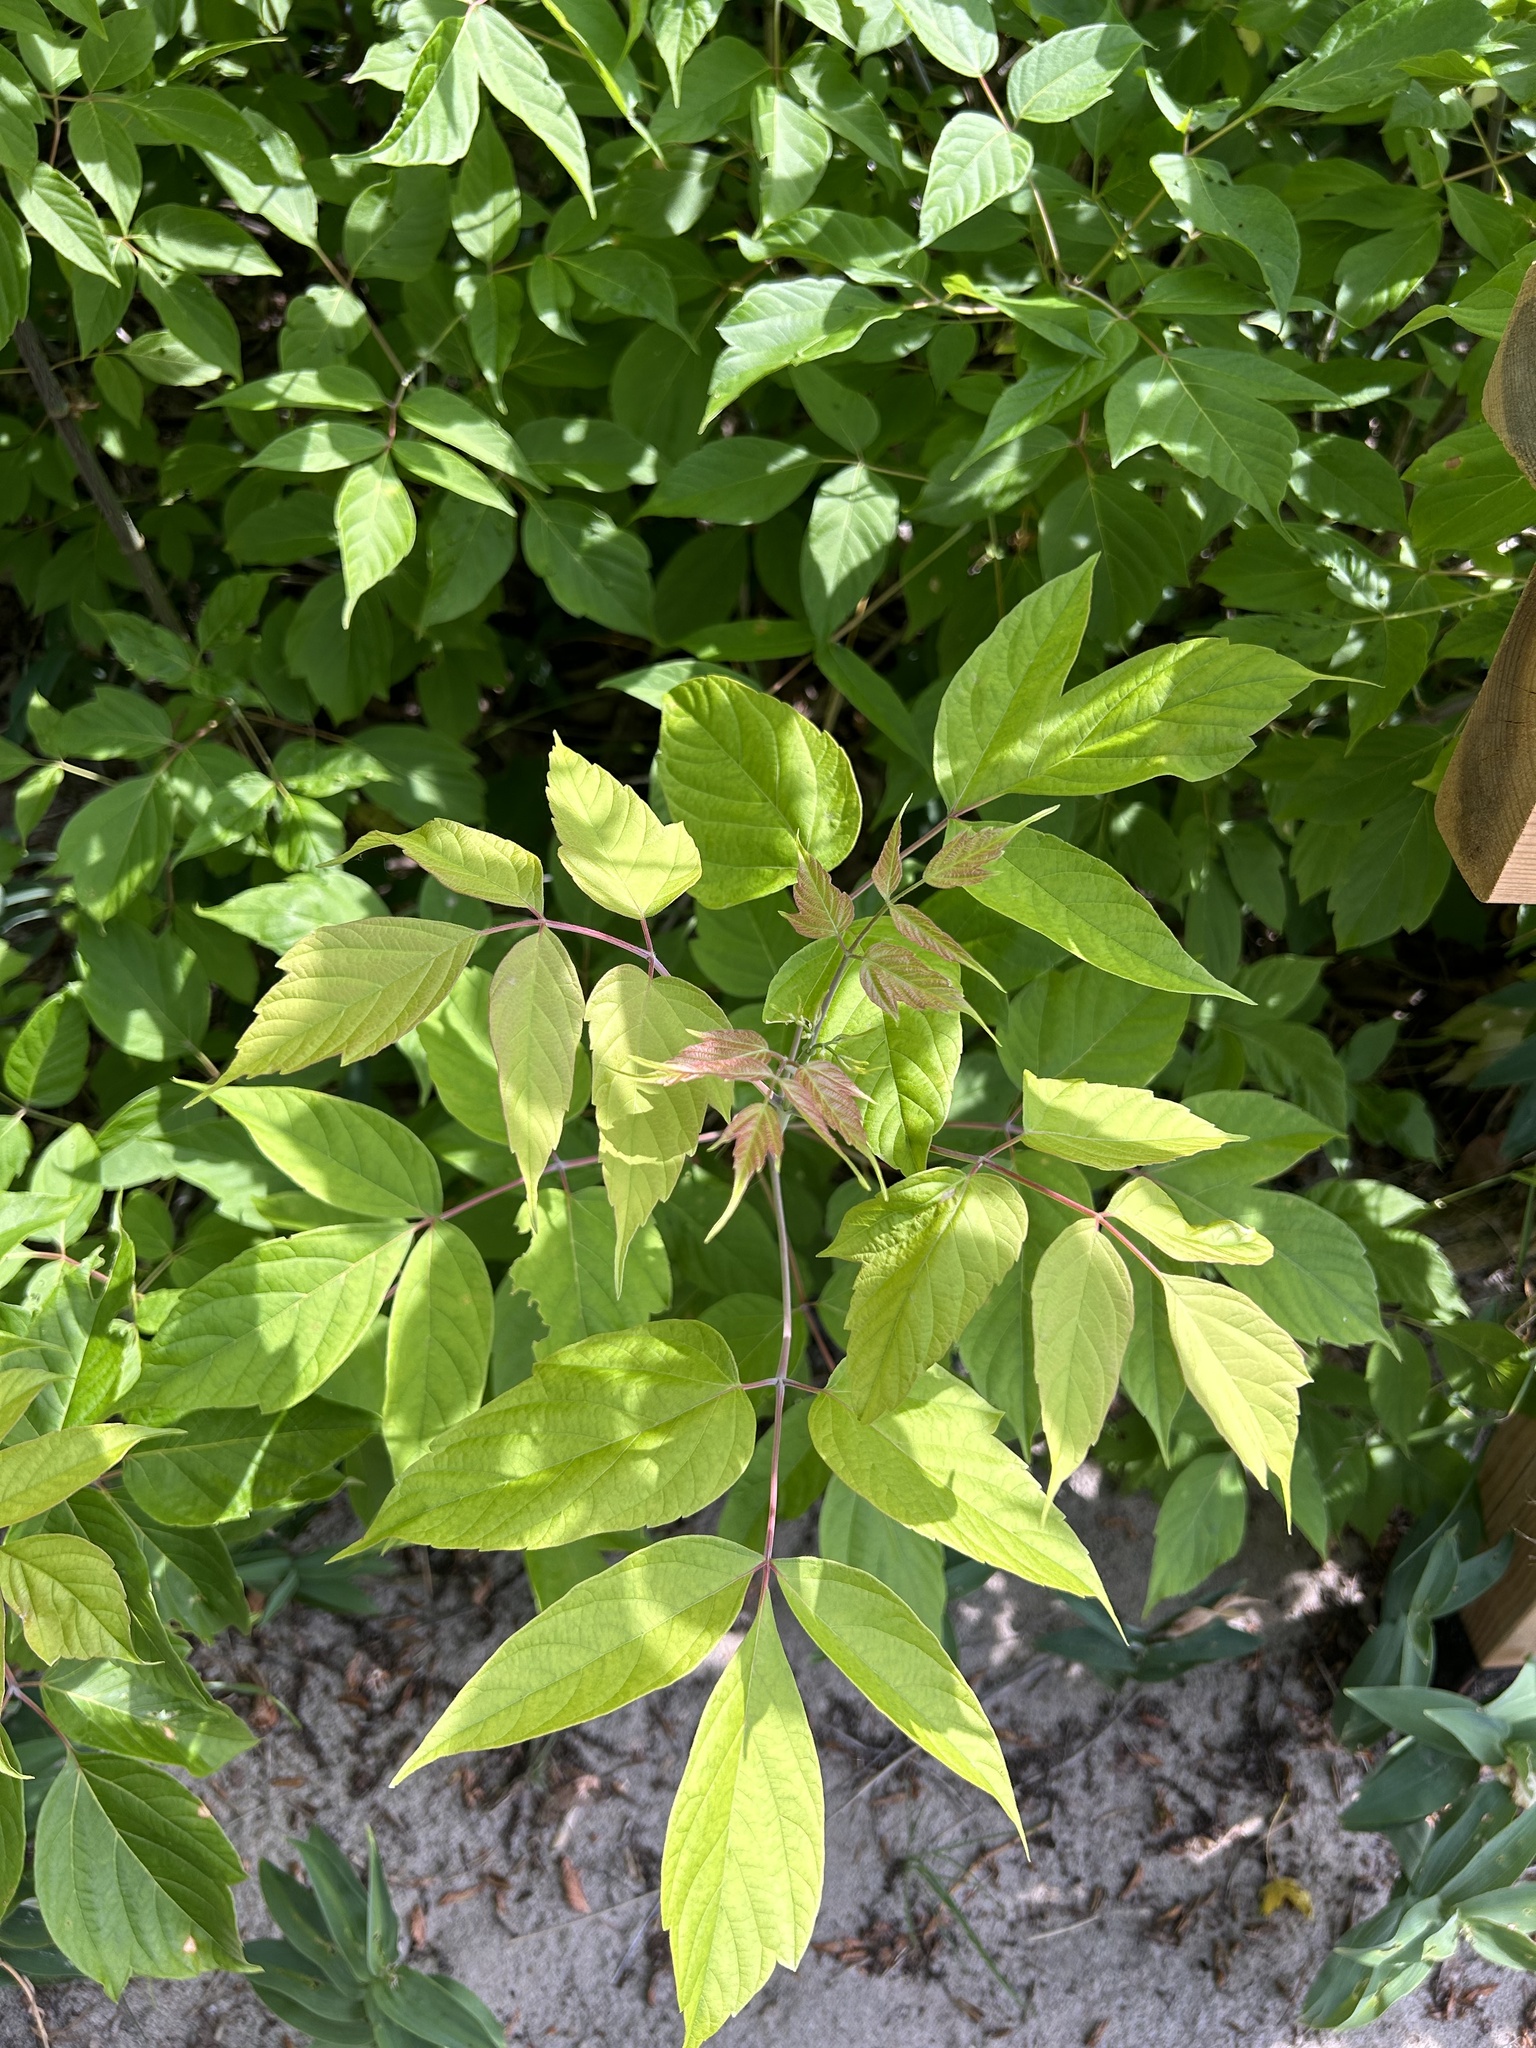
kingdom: Plantae
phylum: Tracheophyta
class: Magnoliopsida
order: Sapindales
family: Sapindaceae
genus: Acer
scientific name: Acer negundo
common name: Ashleaf maple
